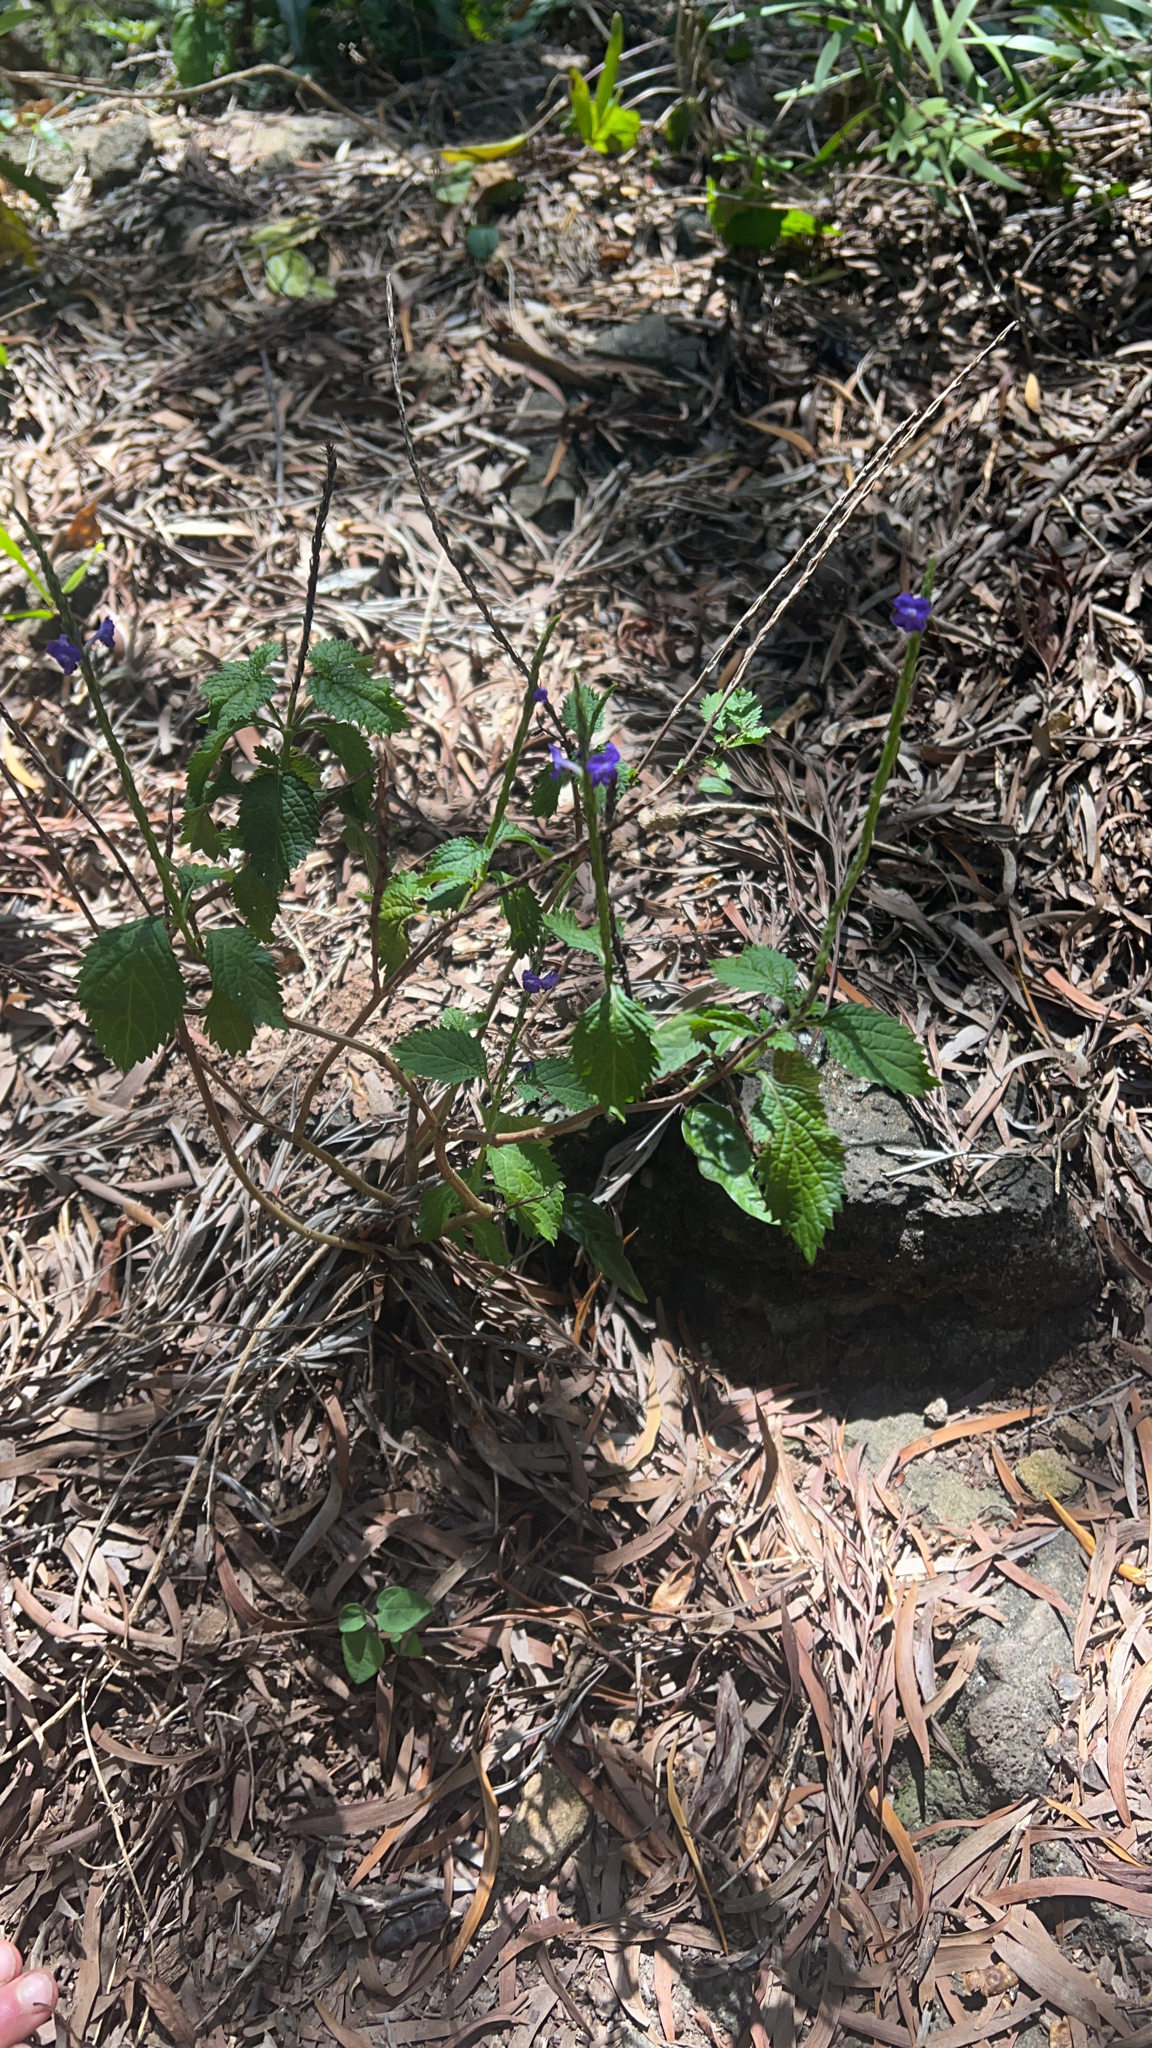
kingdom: Plantae
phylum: Tracheophyta
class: Magnoliopsida
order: Lamiales
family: Verbenaceae
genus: Stachytarpheta
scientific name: Stachytarpheta cayennensis
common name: Cayenne porterweed
